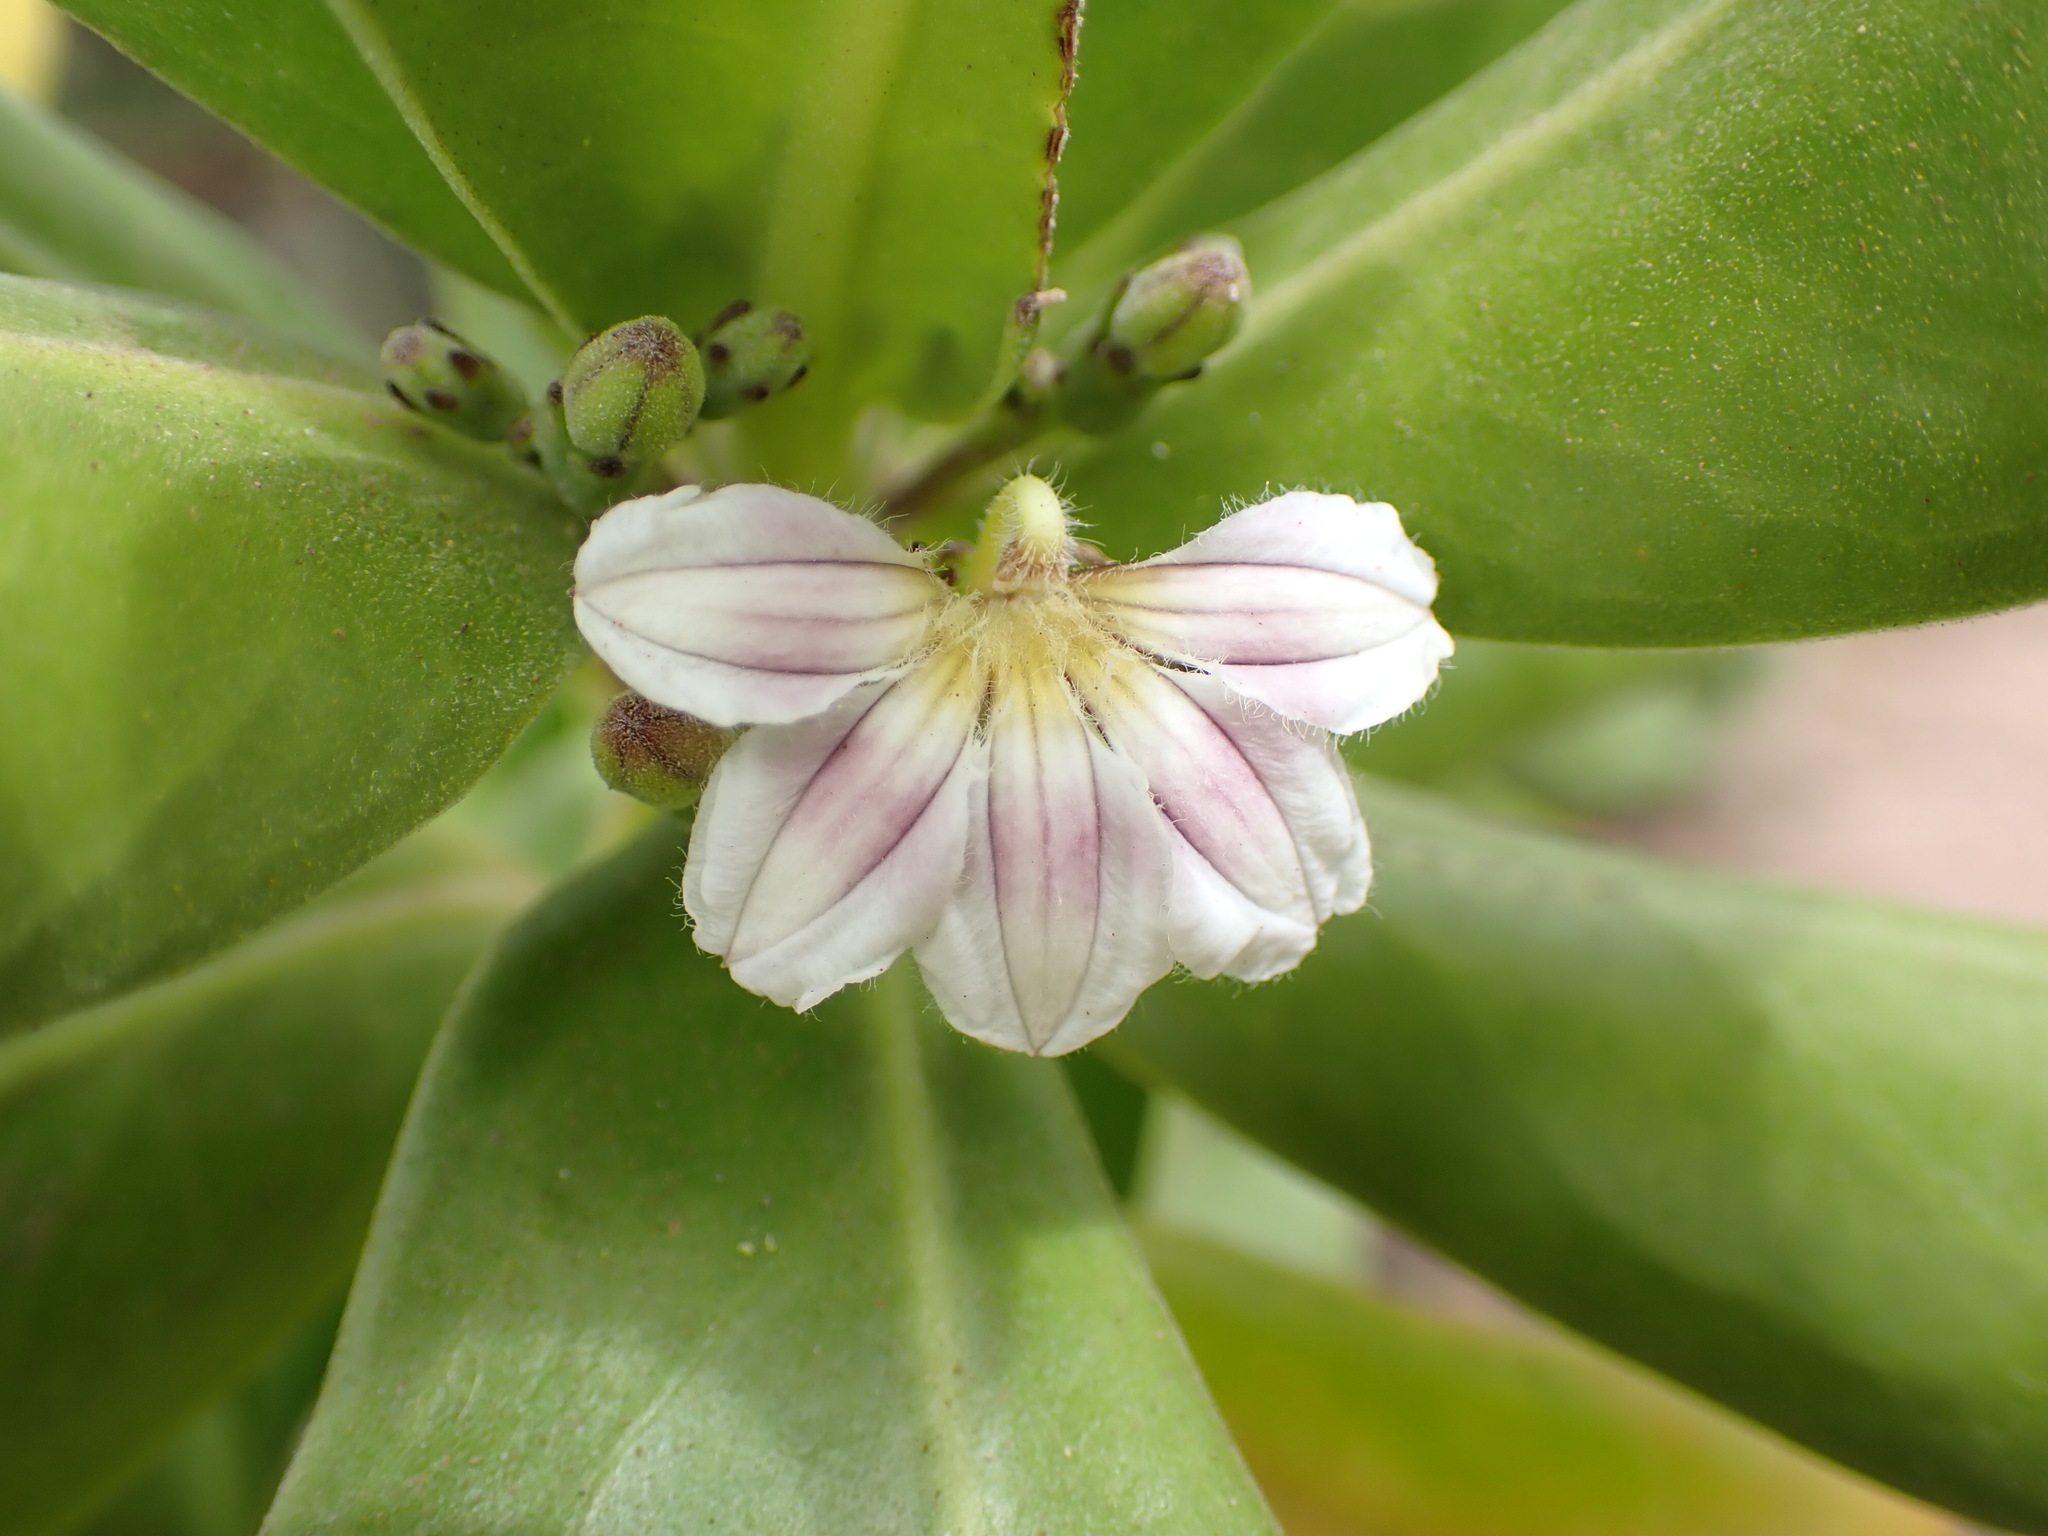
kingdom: Plantae
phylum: Tracheophyta
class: Magnoliopsida
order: Asterales
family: Goodeniaceae
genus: Scaevola
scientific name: Scaevola taccada
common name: Sea lettucetree
